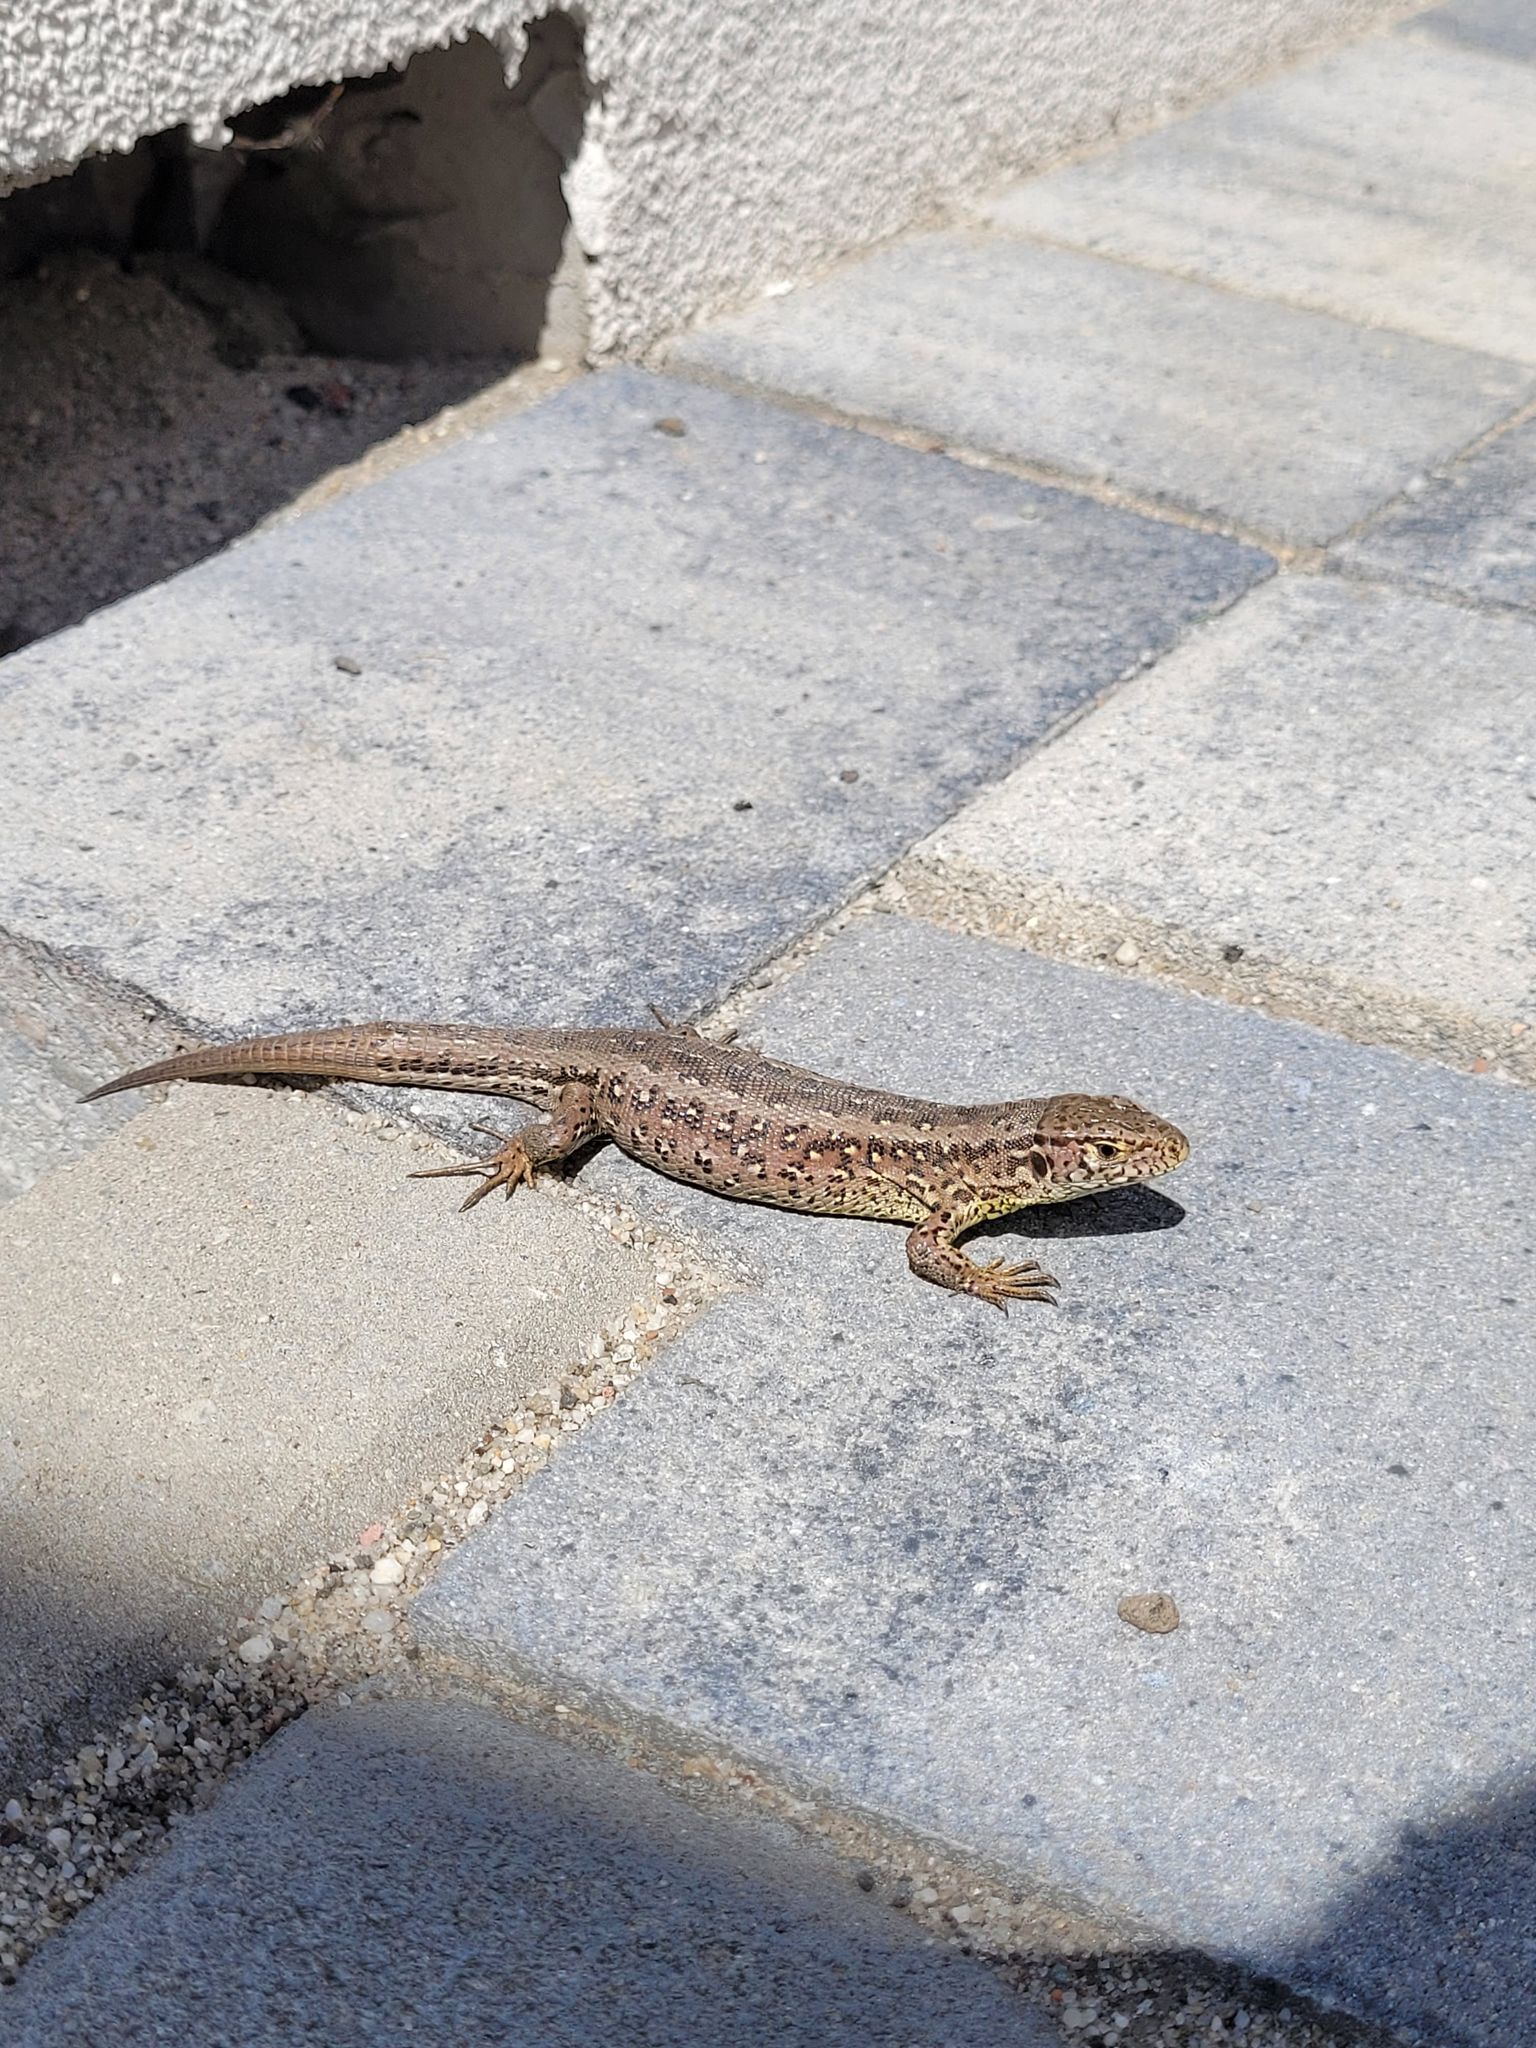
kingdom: Animalia
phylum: Chordata
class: Squamata
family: Lacertidae
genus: Lacerta
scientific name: Lacerta agilis
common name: Sand lizard
